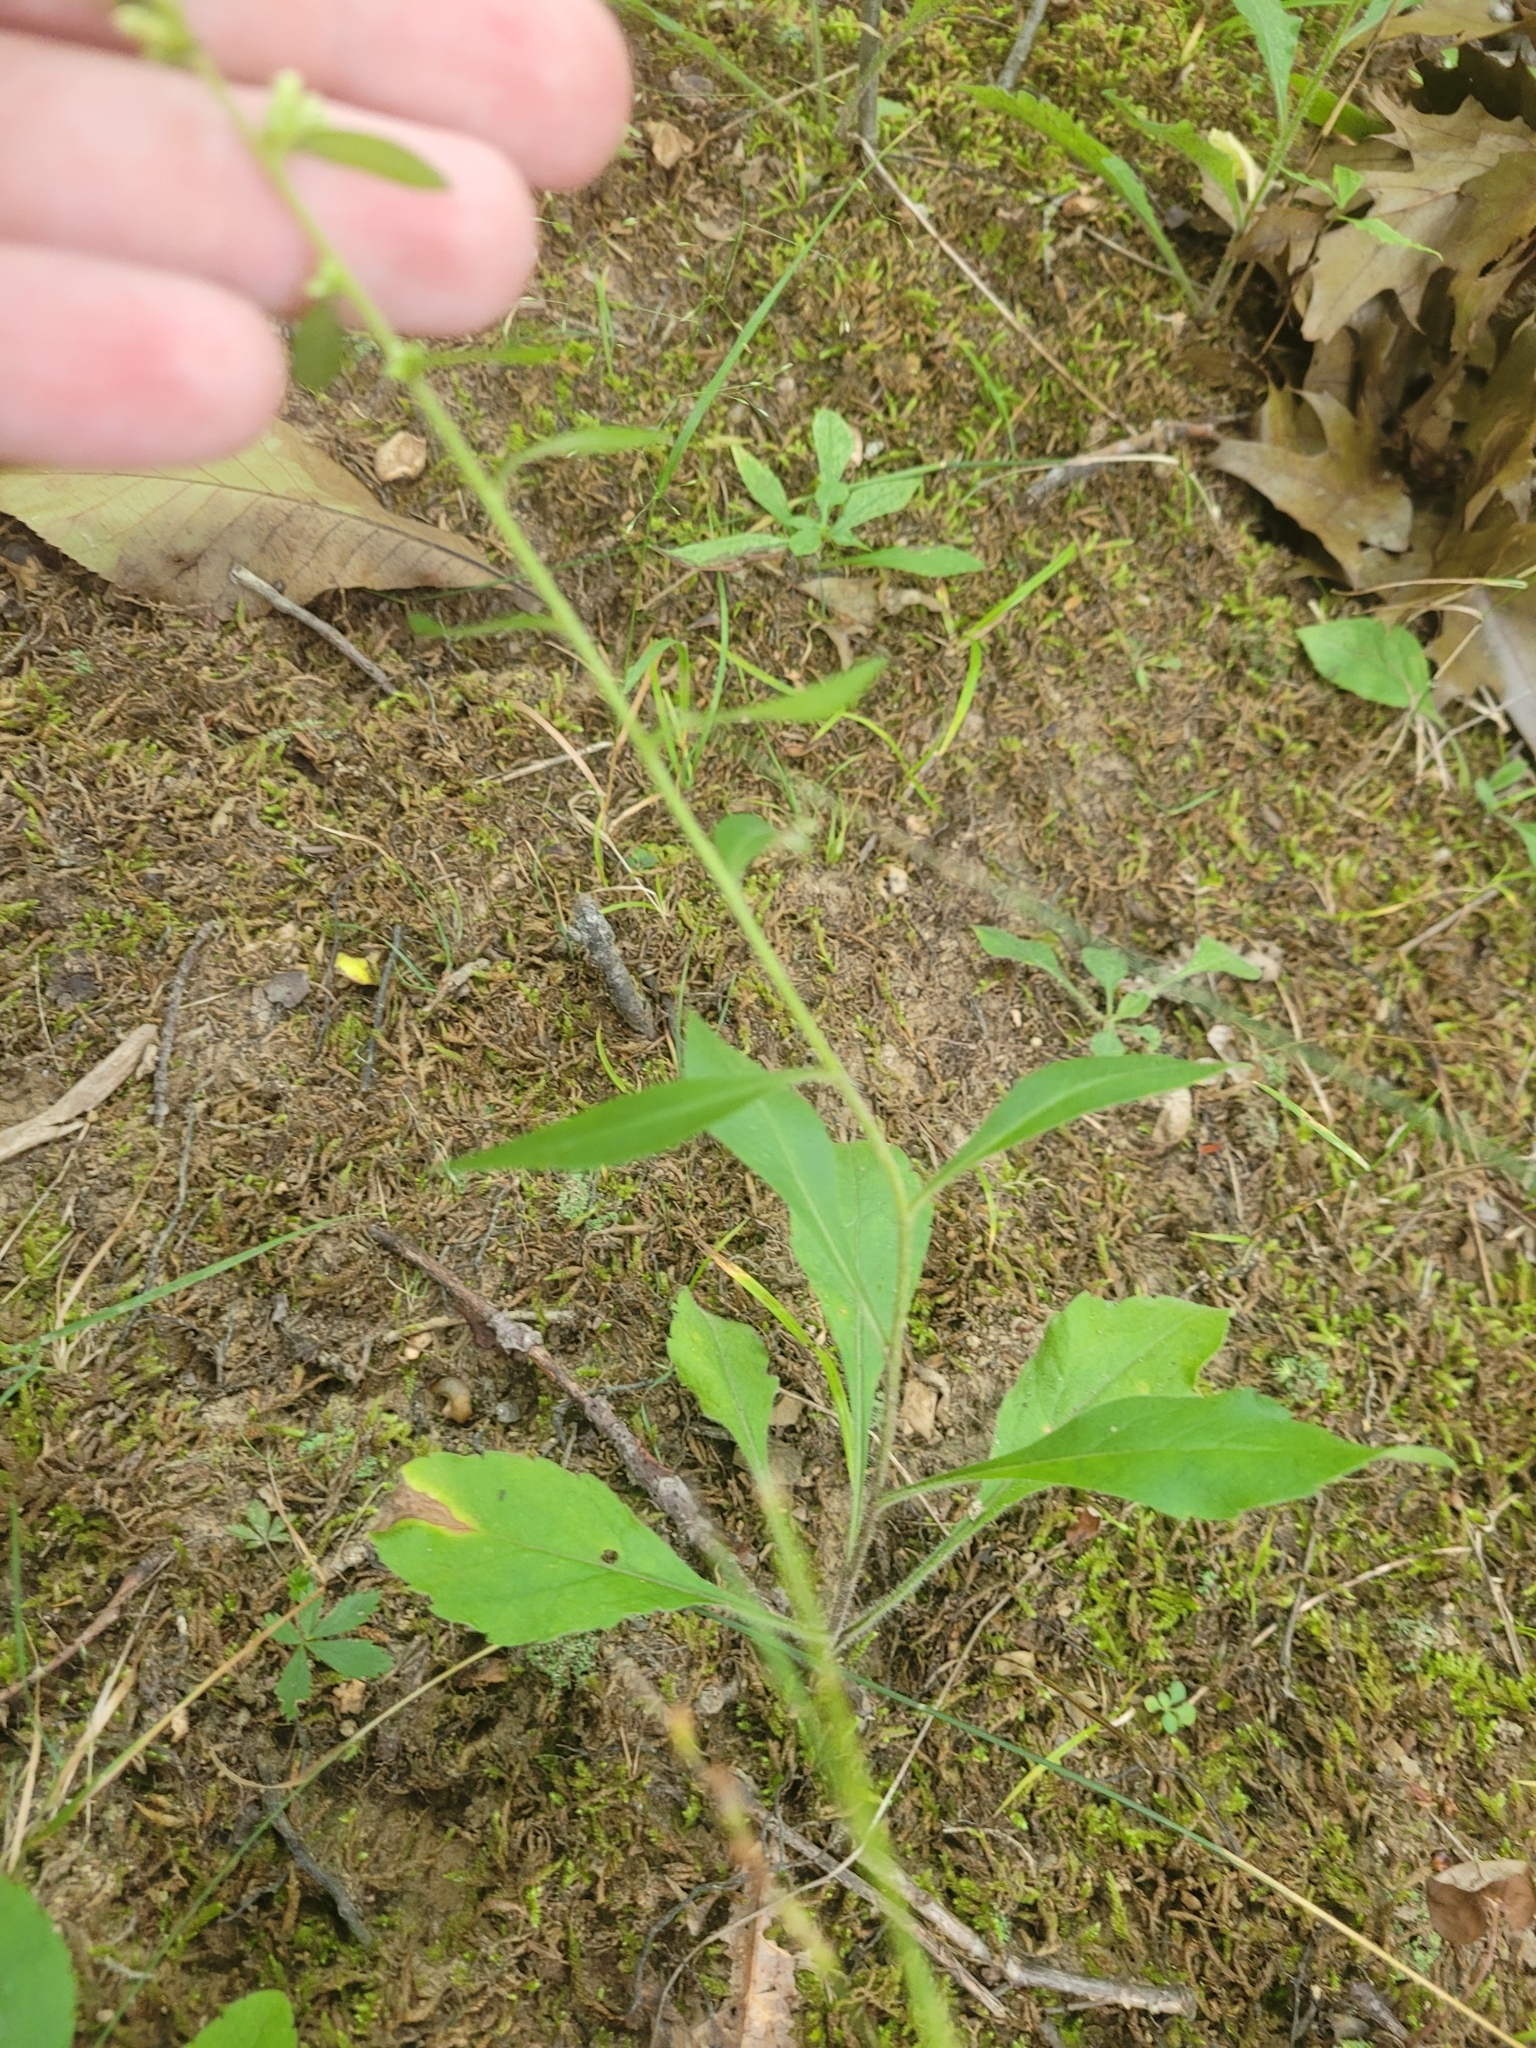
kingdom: Plantae
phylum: Tracheophyta
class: Magnoliopsida
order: Asterales
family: Asteraceae
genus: Solidago
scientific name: Solidago bicolor
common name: Silverrod
